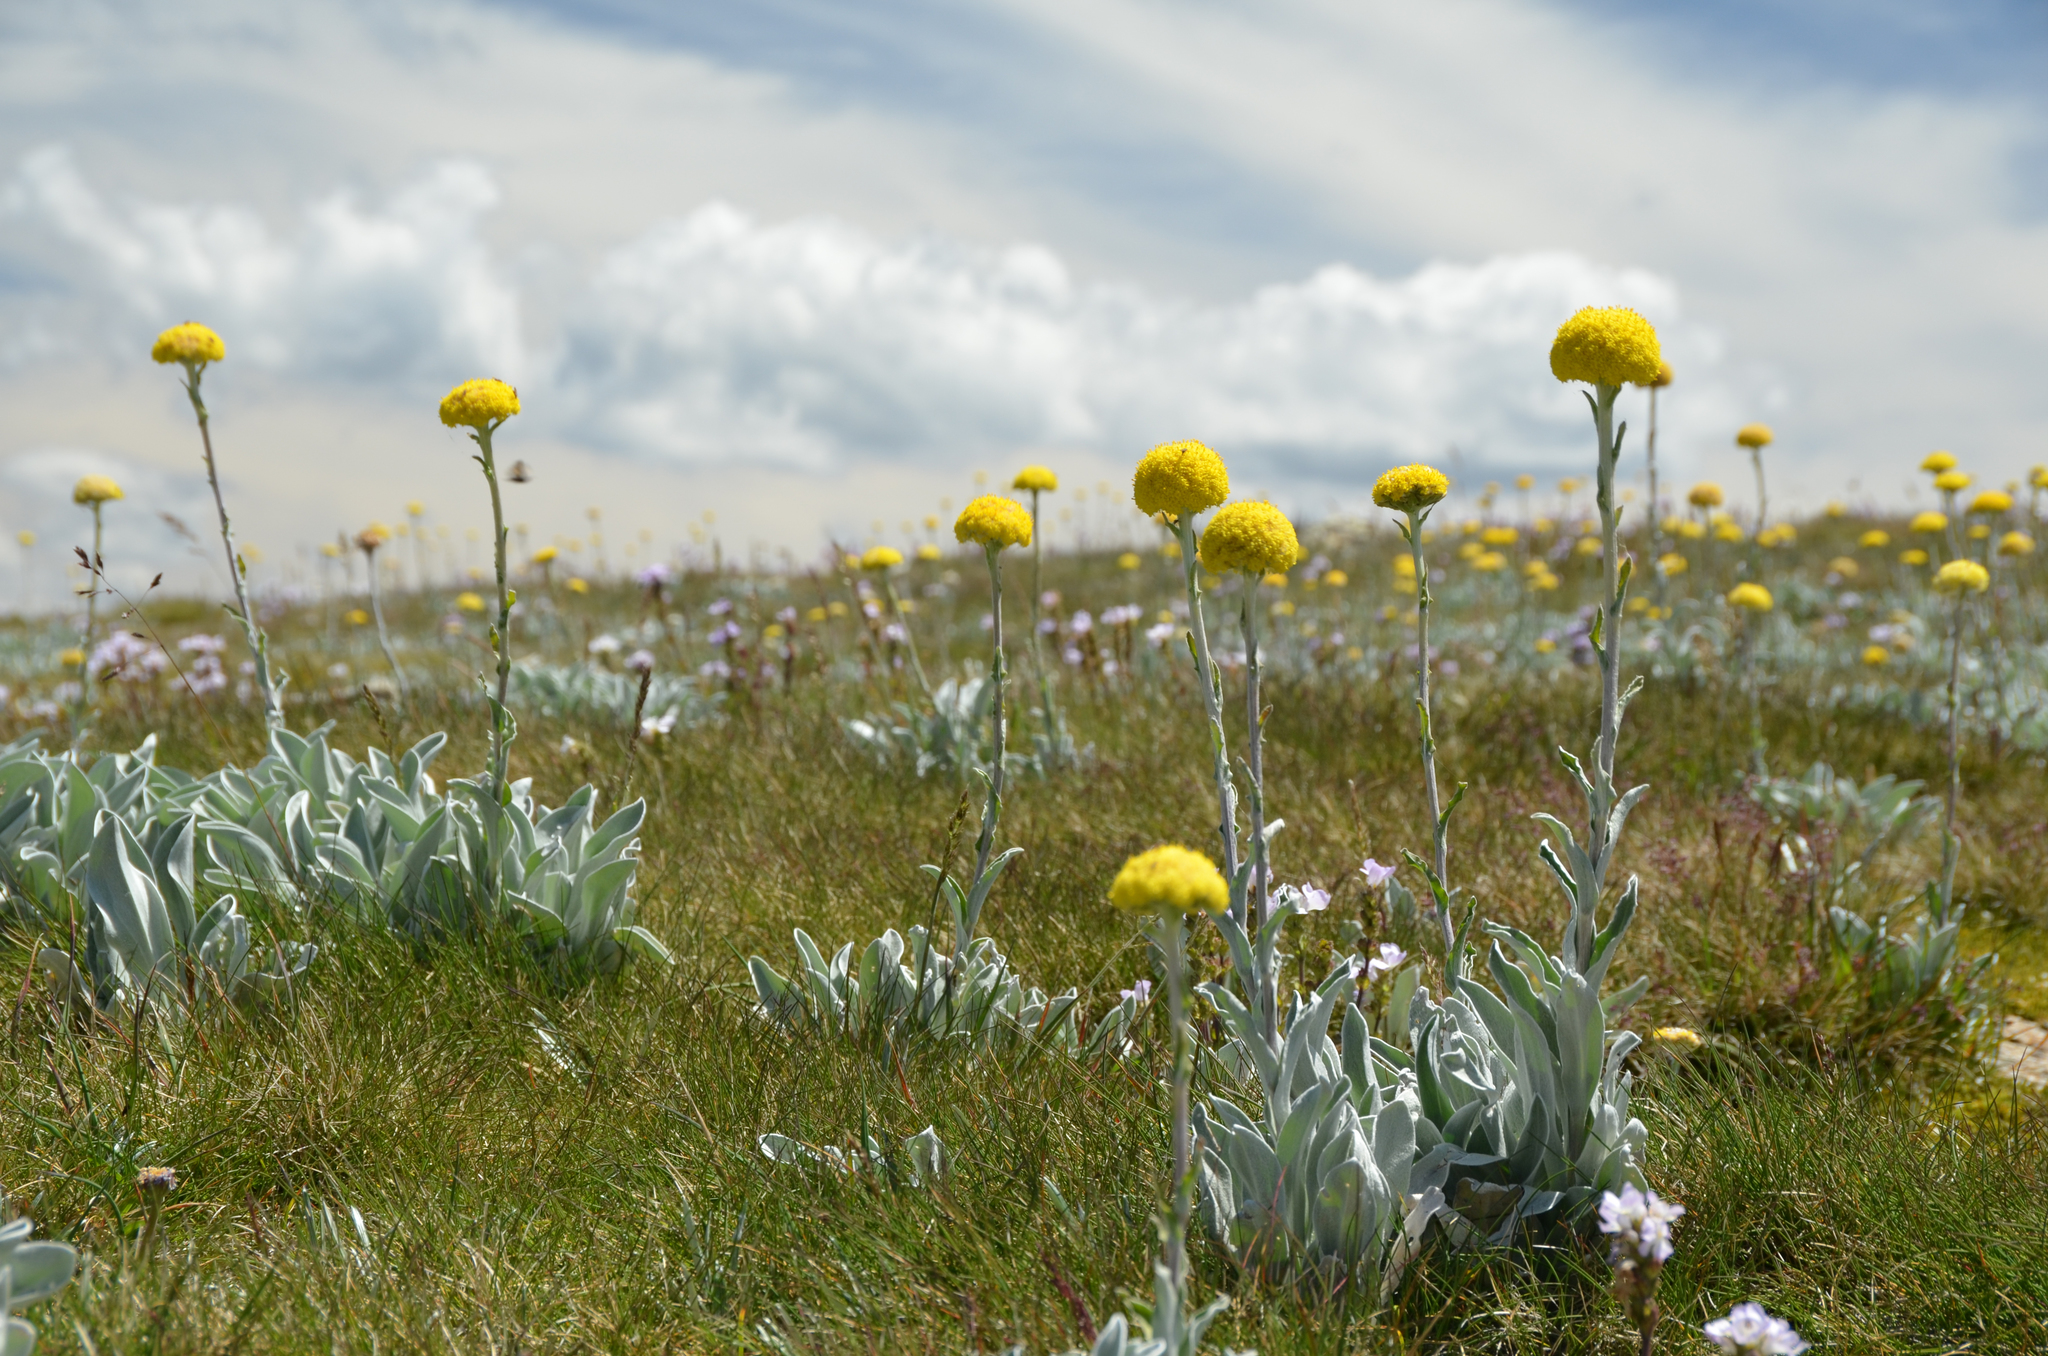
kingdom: Plantae
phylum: Tracheophyta
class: Magnoliopsida
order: Asterales
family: Asteraceae
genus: Craspedia
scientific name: Craspedia maxgrayi
